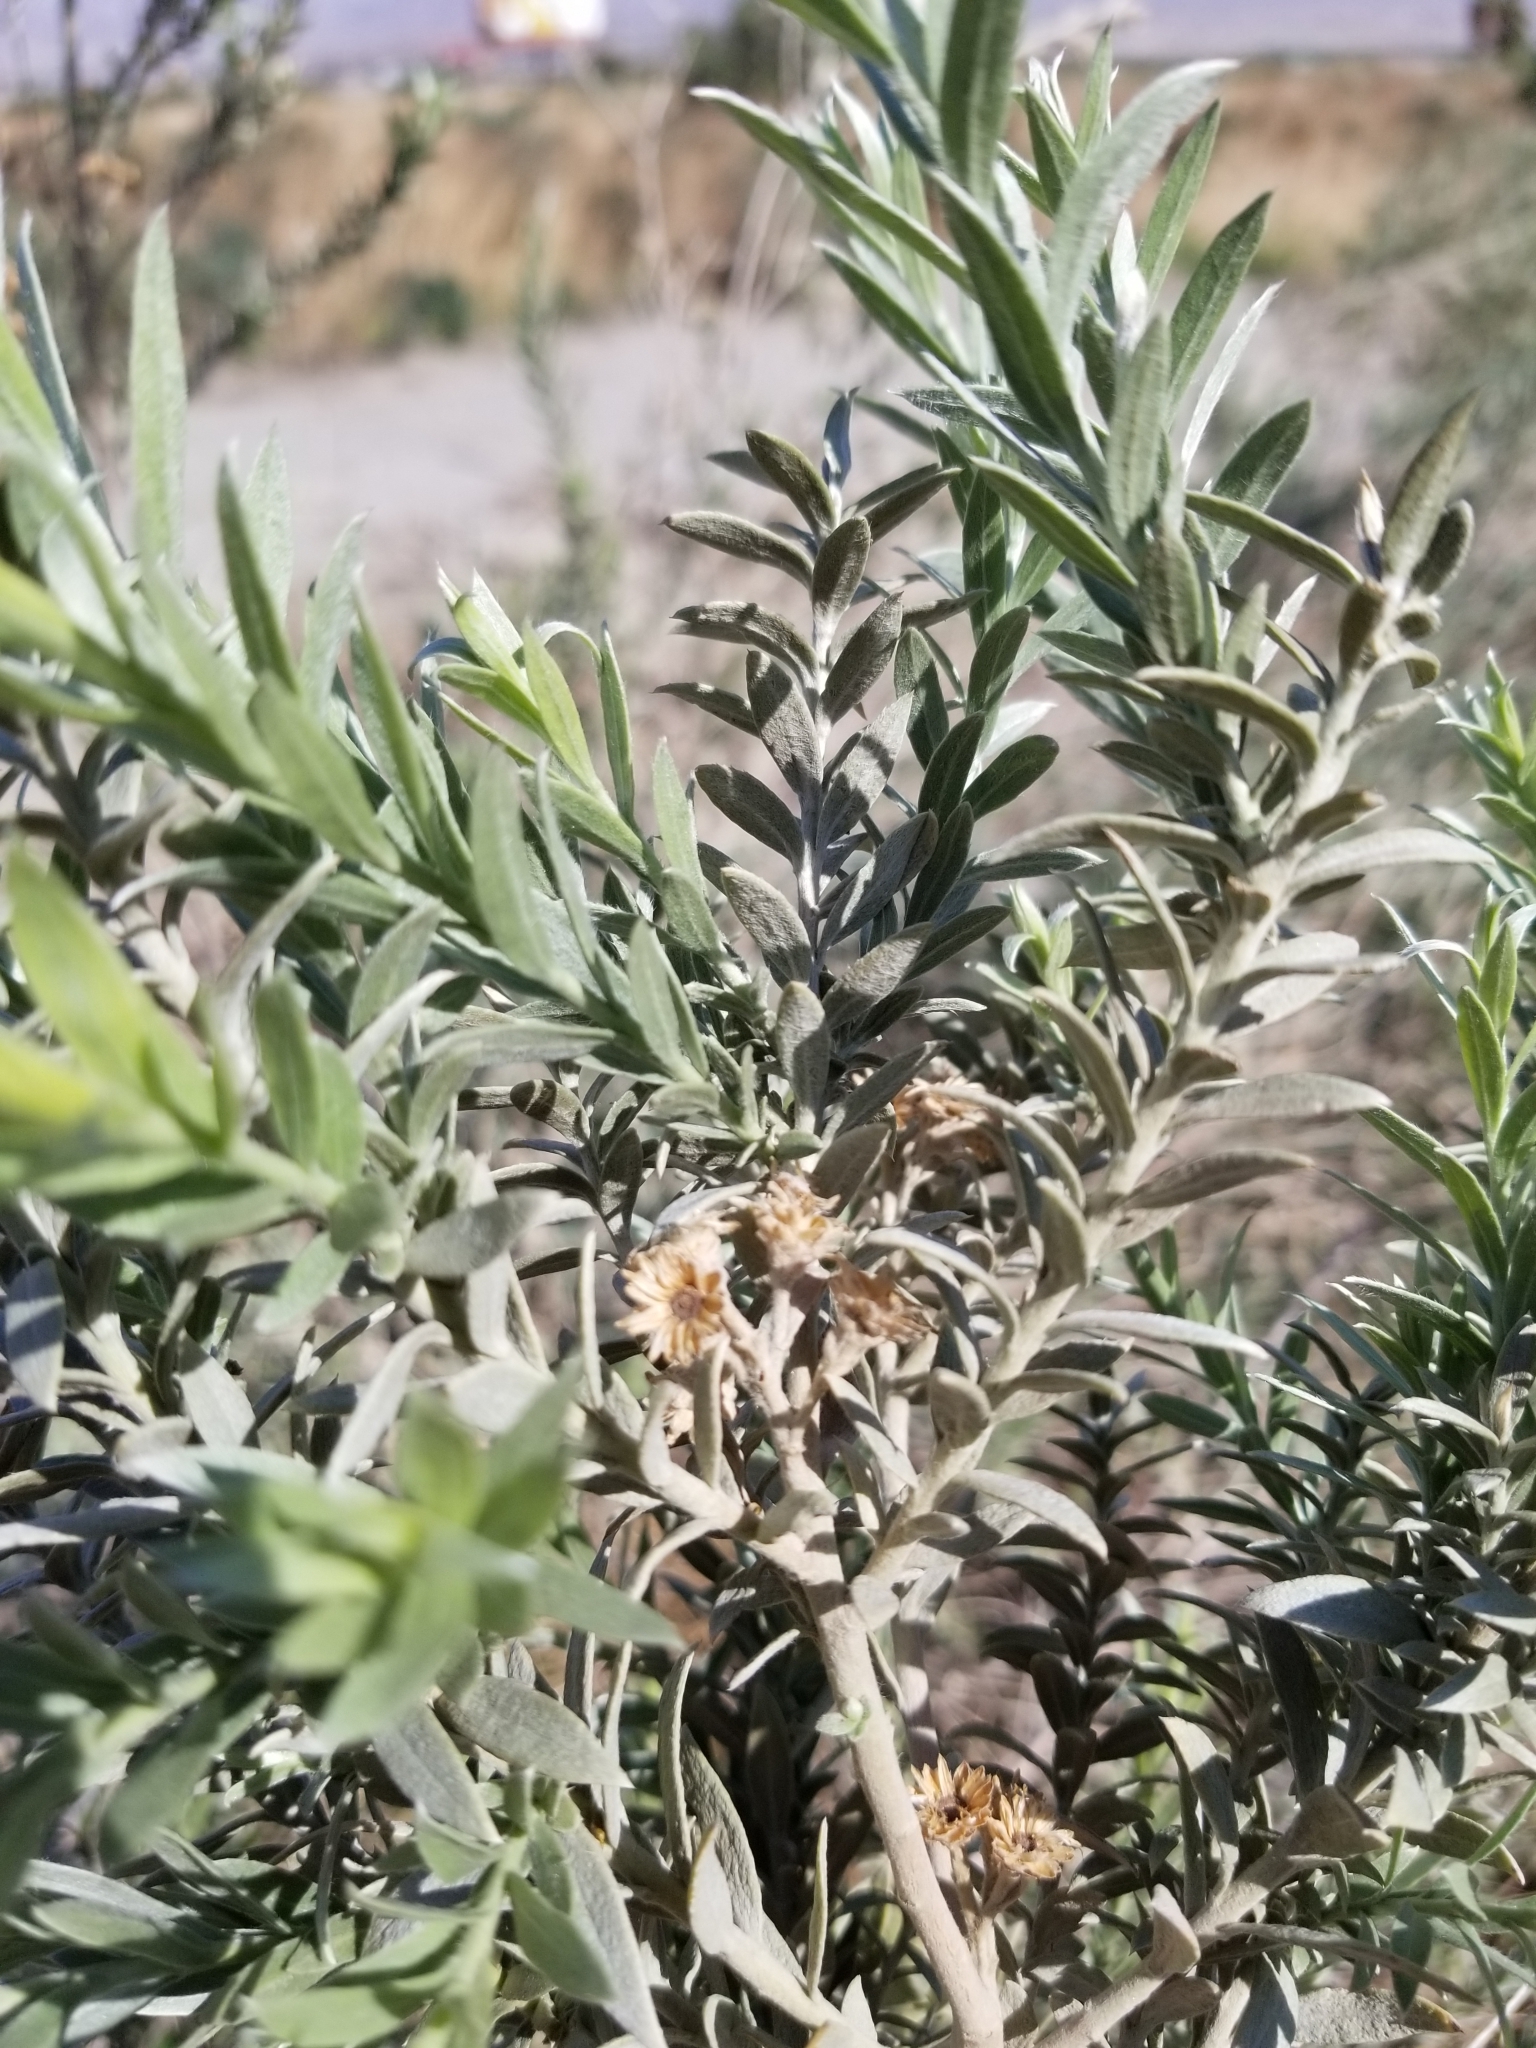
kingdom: Plantae
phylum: Tracheophyta
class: Magnoliopsida
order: Asterales
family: Asteraceae
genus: Pluchea
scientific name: Pluchea sericea
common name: Arrow-weed
